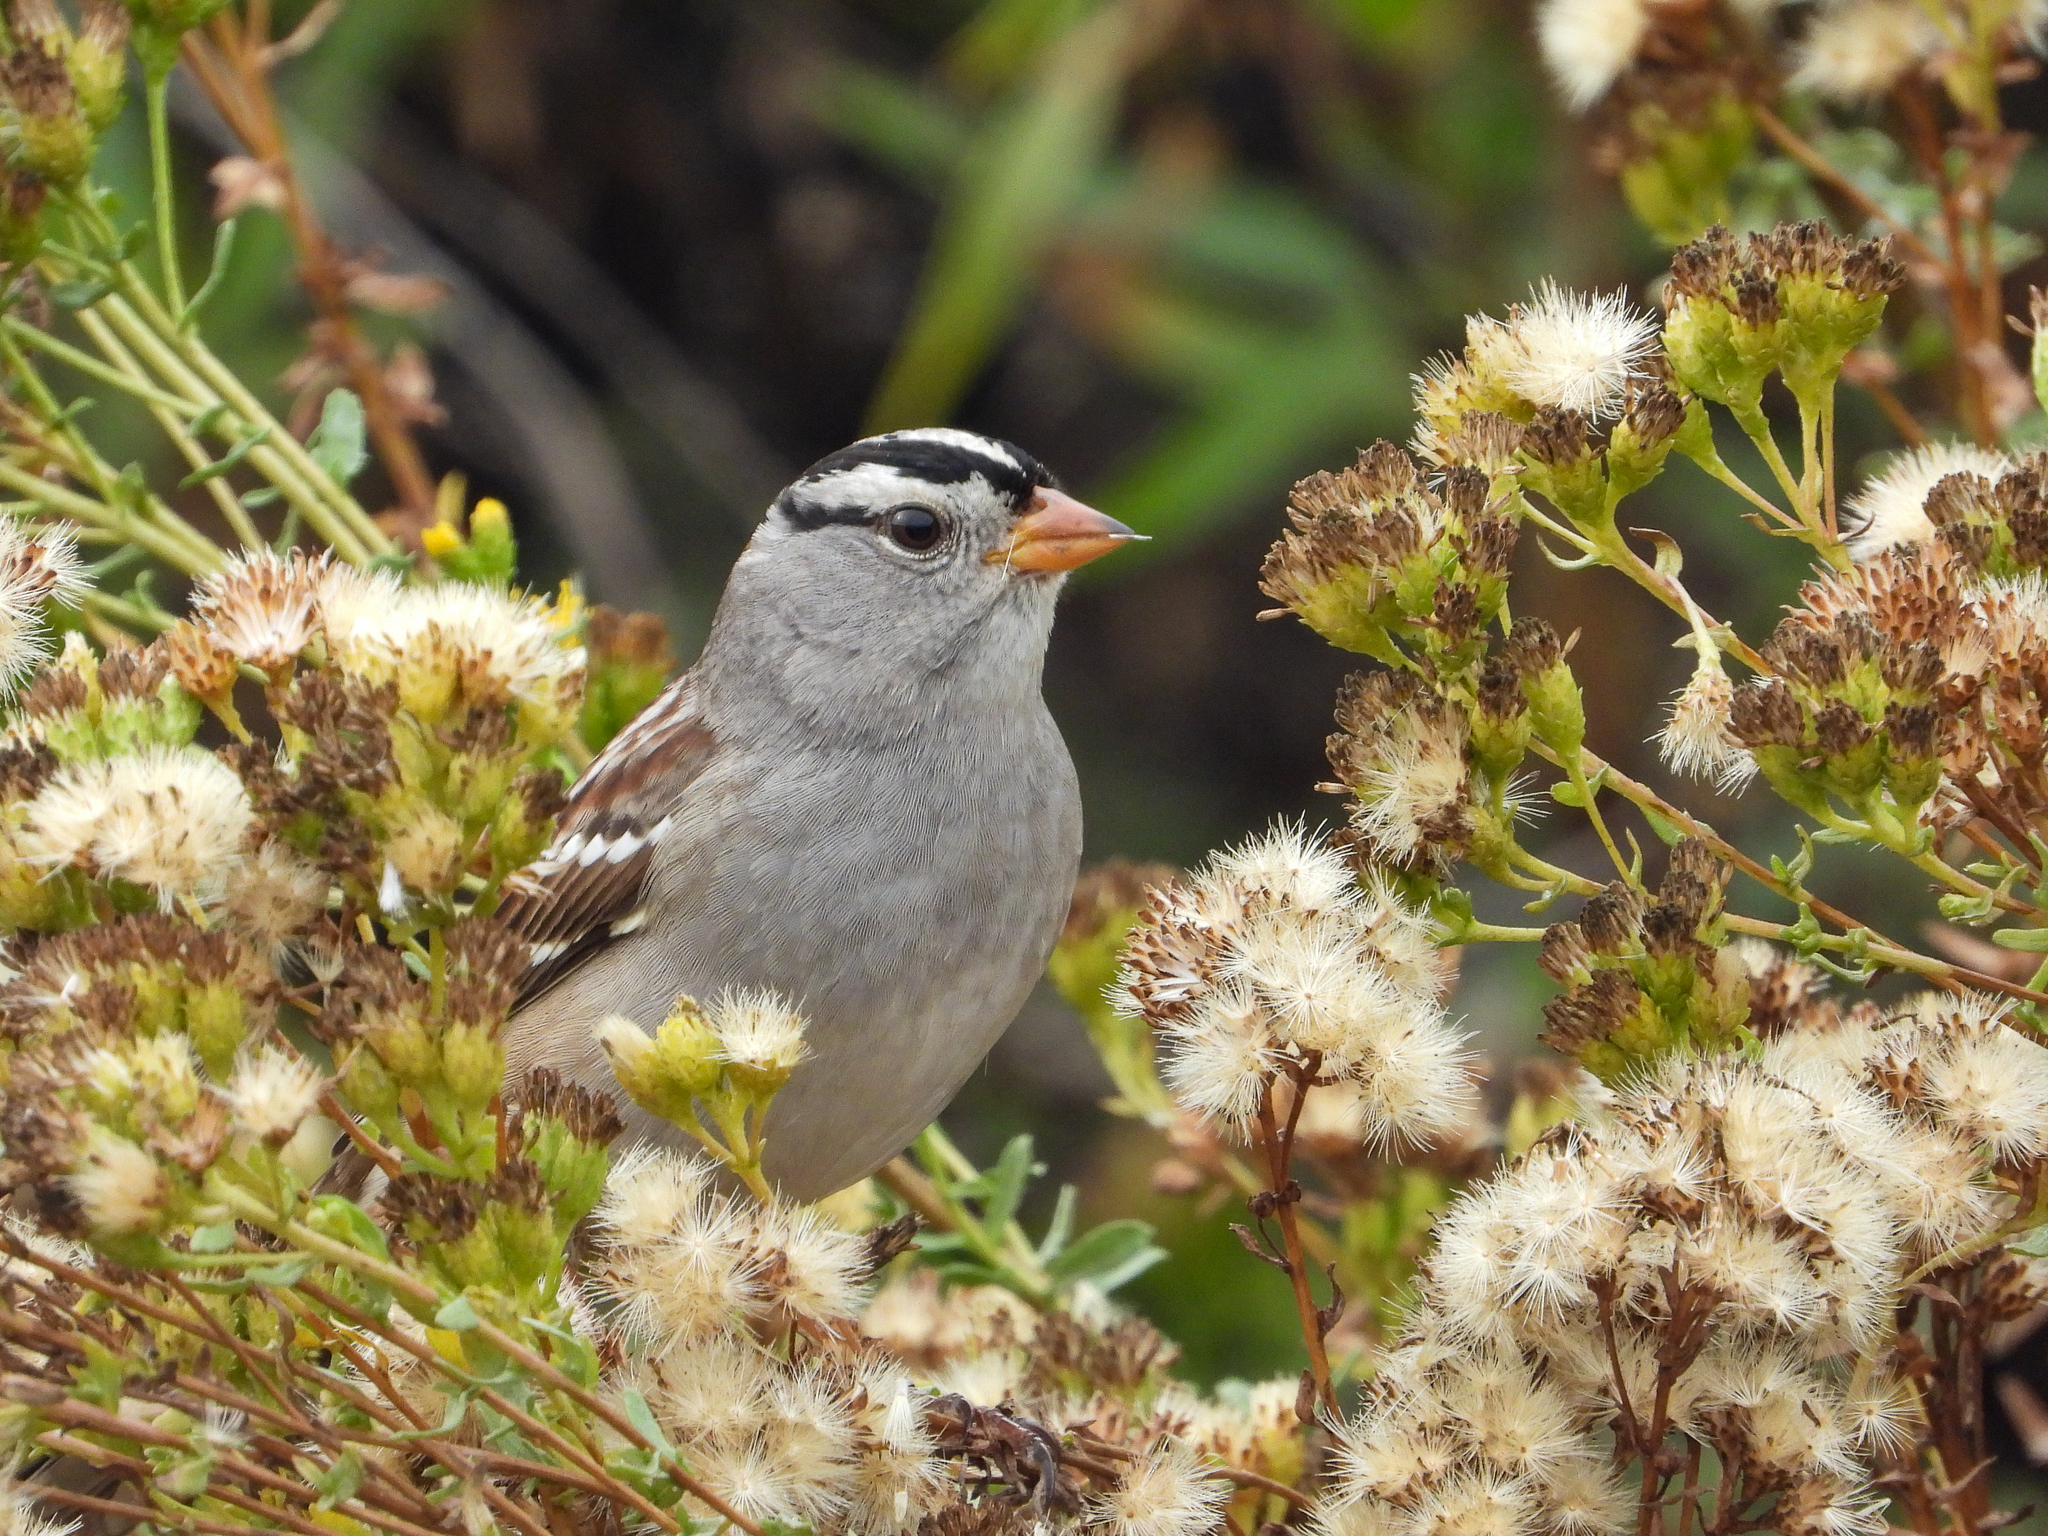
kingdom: Animalia
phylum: Chordata
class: Aves
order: Passeriformes
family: Passerellidae
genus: Zonotrichia
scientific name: Zonotrichia leucophrys
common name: White-crowned sparrow
